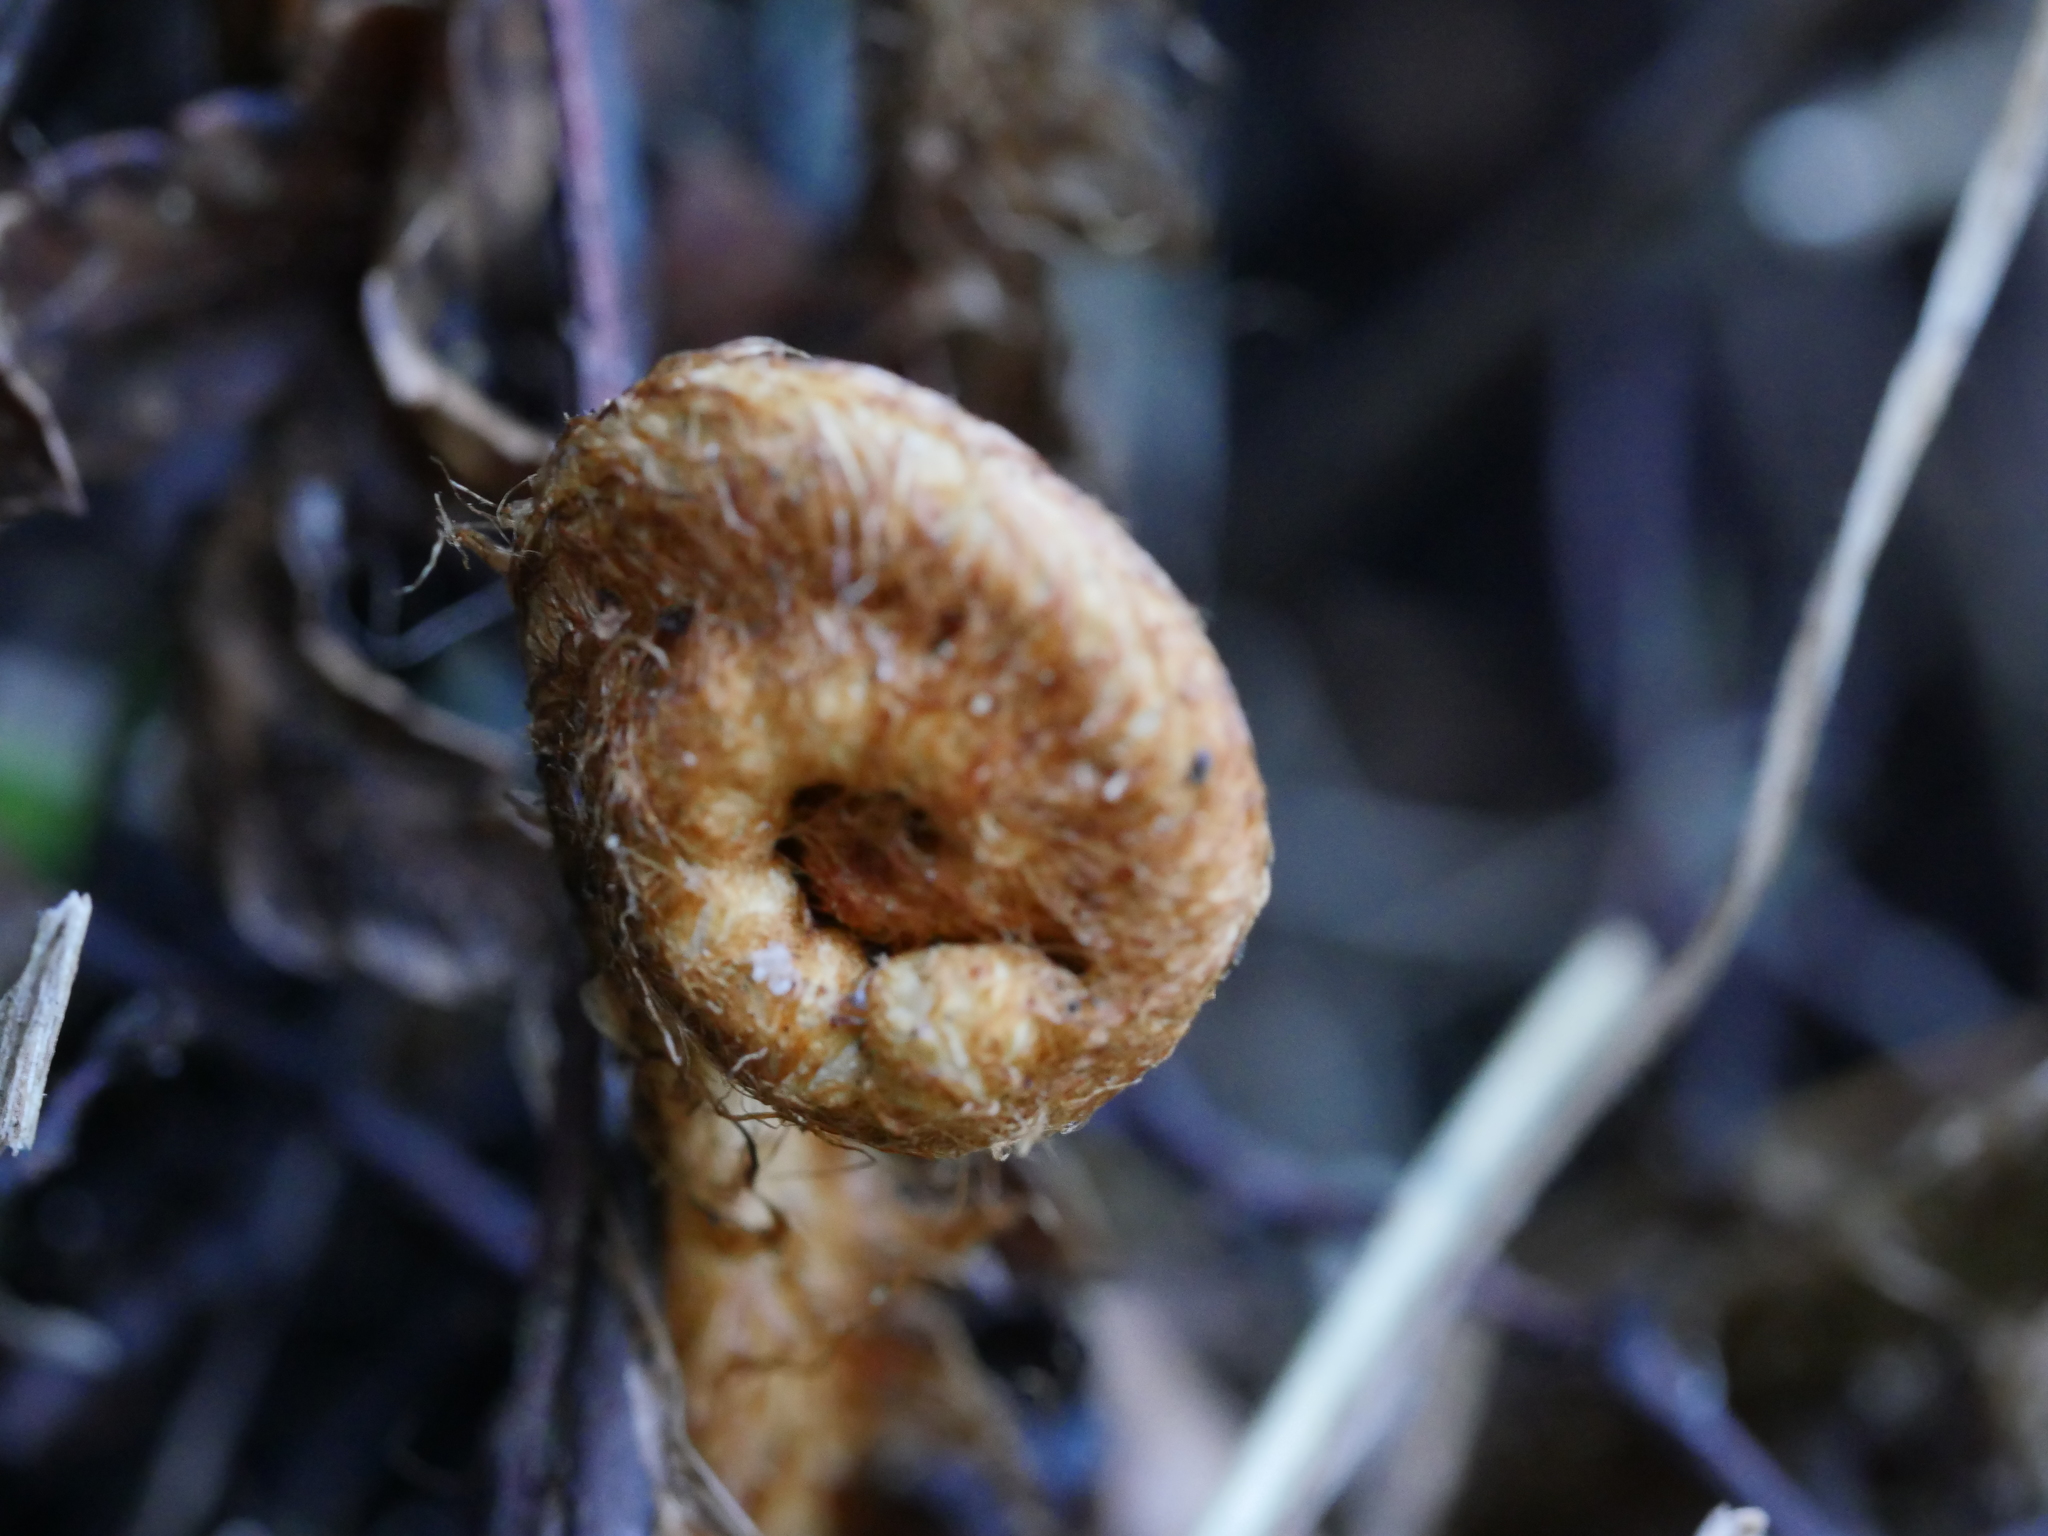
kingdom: Plantae
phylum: Tracheophyta
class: Polypodiopsida
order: Polypodiales
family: Dryopteridaceae
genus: Polystichum
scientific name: Polystichum wawranum
